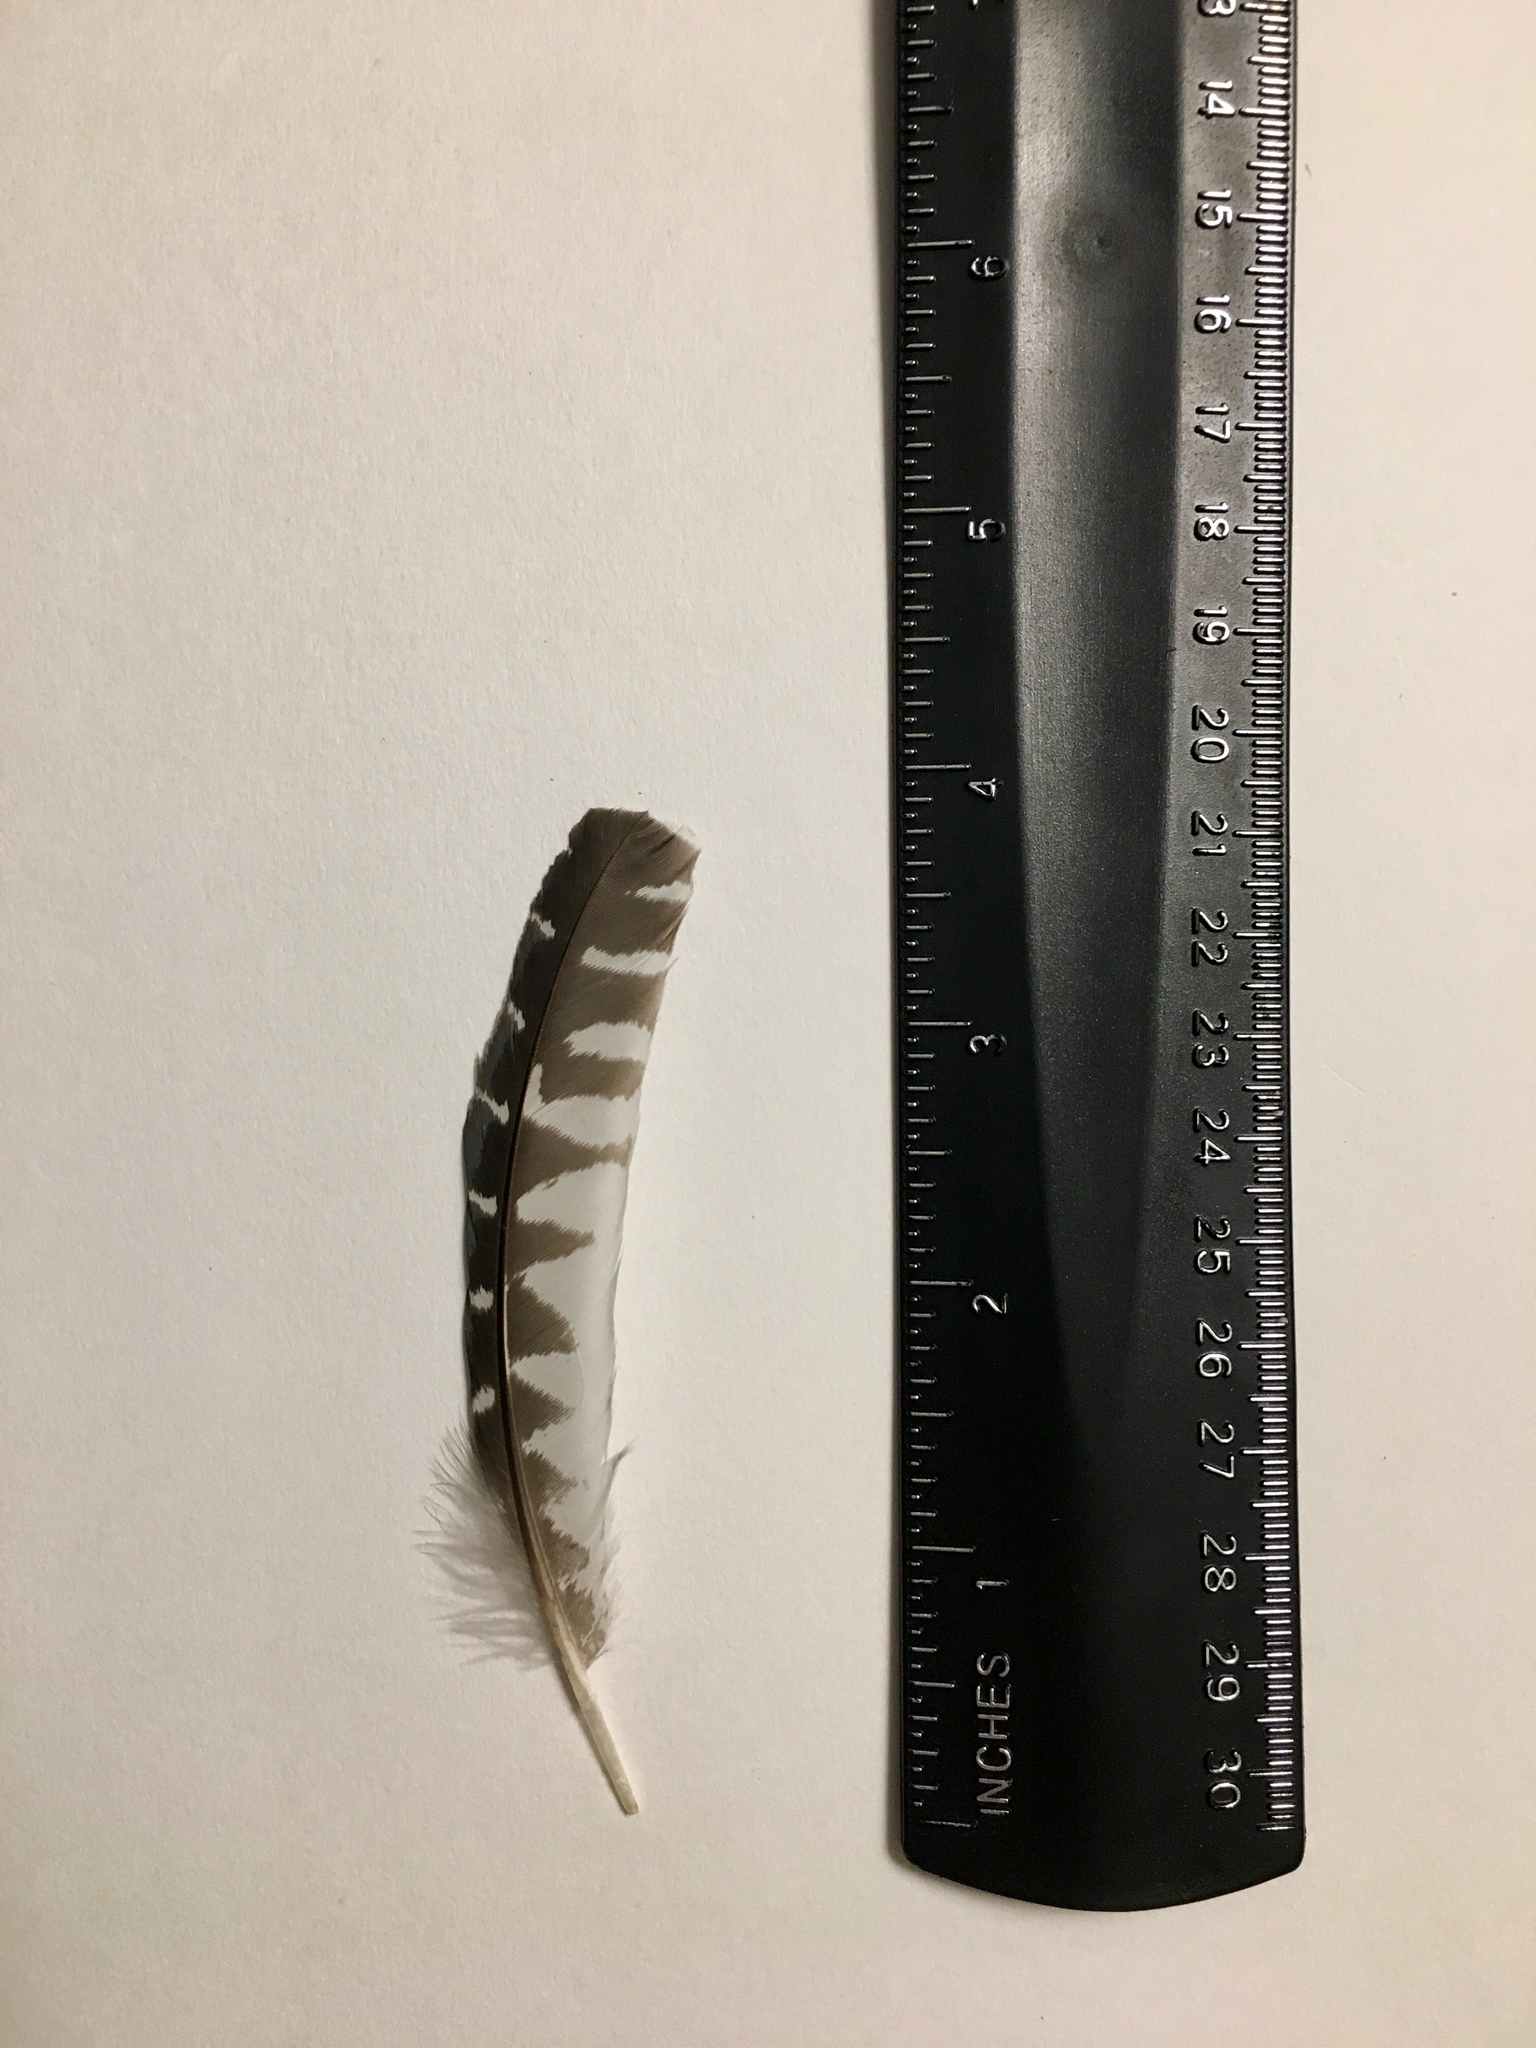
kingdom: Animalia
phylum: Chordata
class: Aves
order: Coraciiformes
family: Alcedinidae
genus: Megaceryle
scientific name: Megaceryle alcyon
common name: Belted kingfisher
